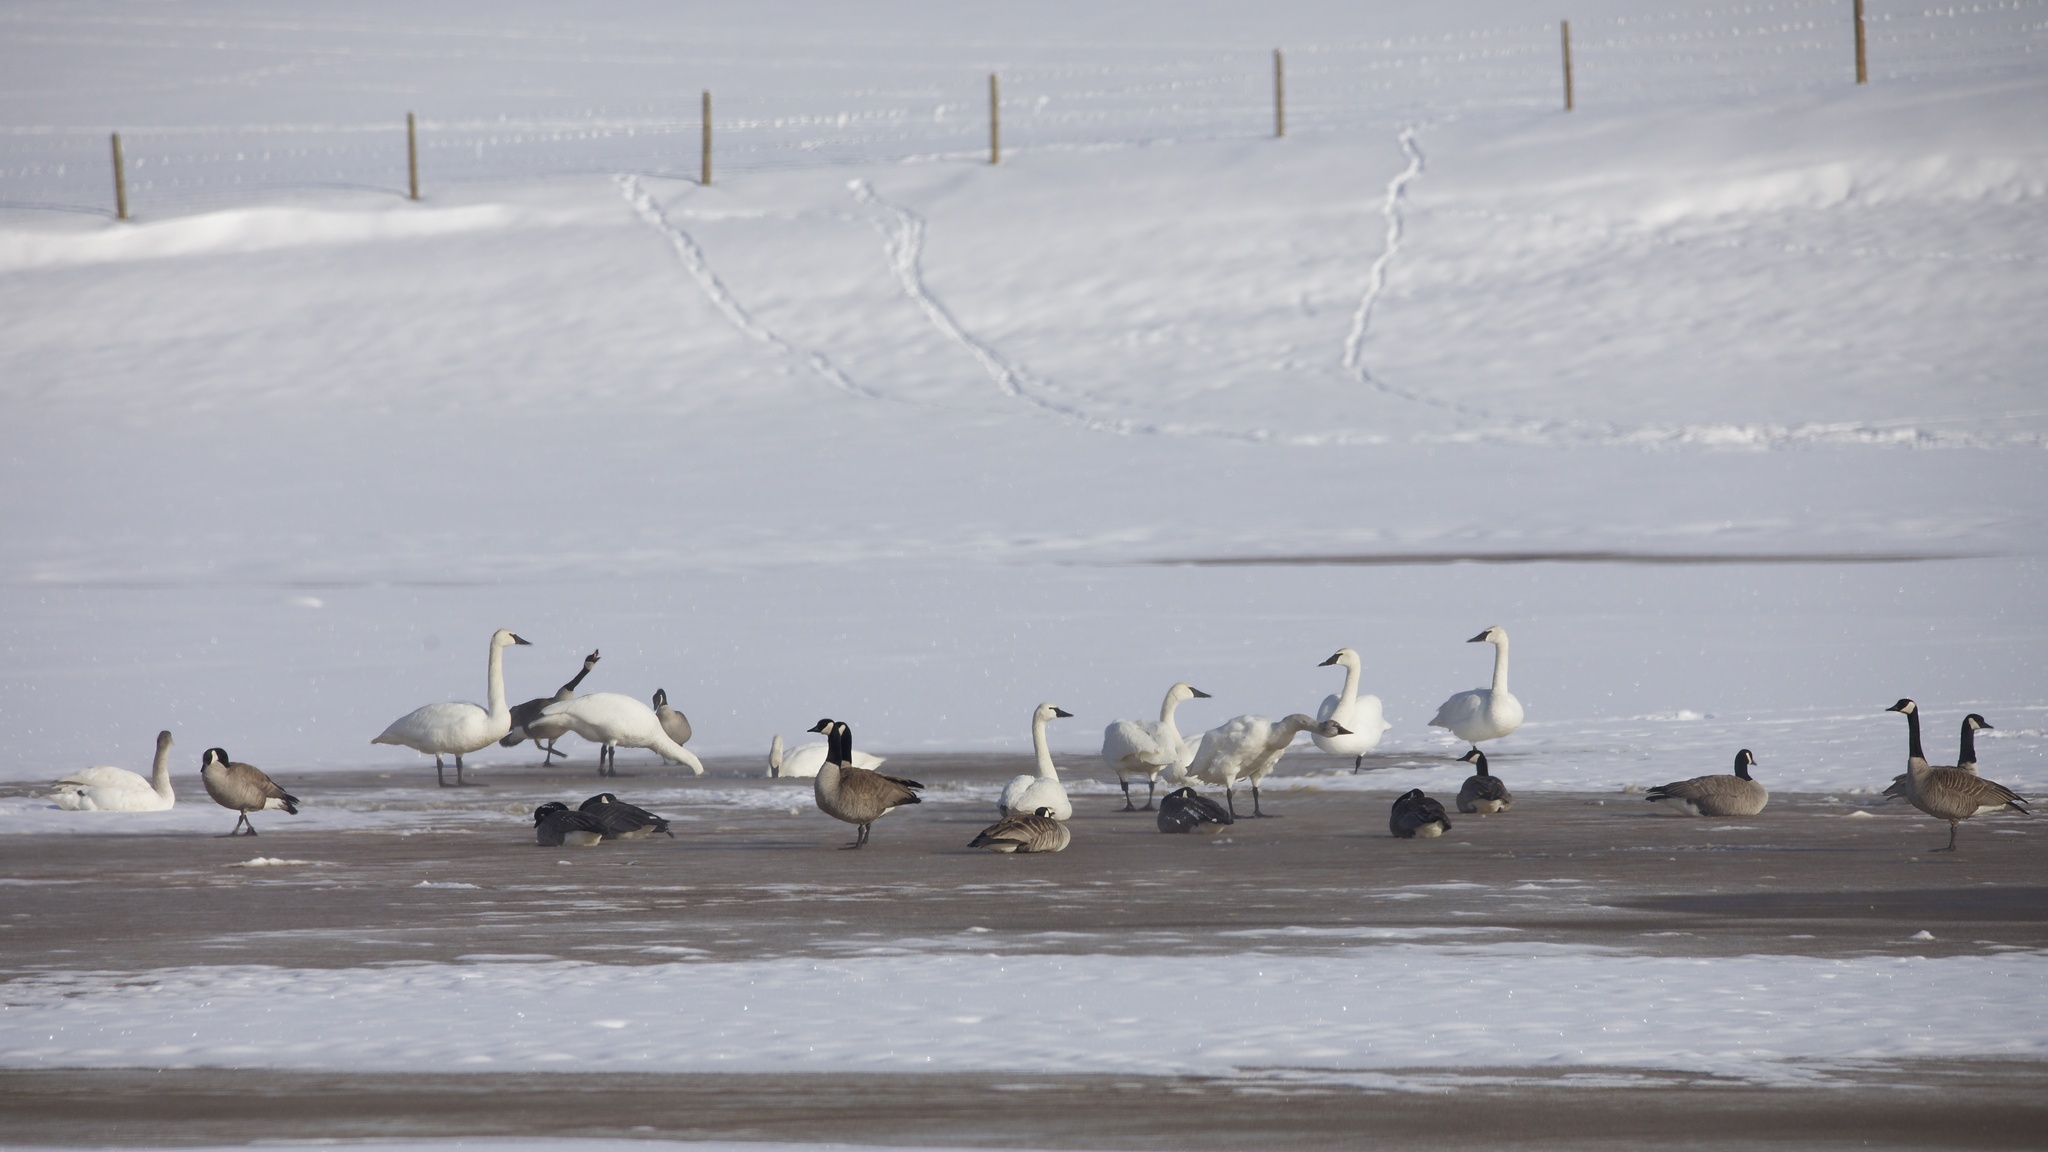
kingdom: Animalia
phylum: Chordata
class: Aves
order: Anseriformes
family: Anatidae
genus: Cygnus
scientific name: Cygnus buccinator
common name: Trumpeter swan
